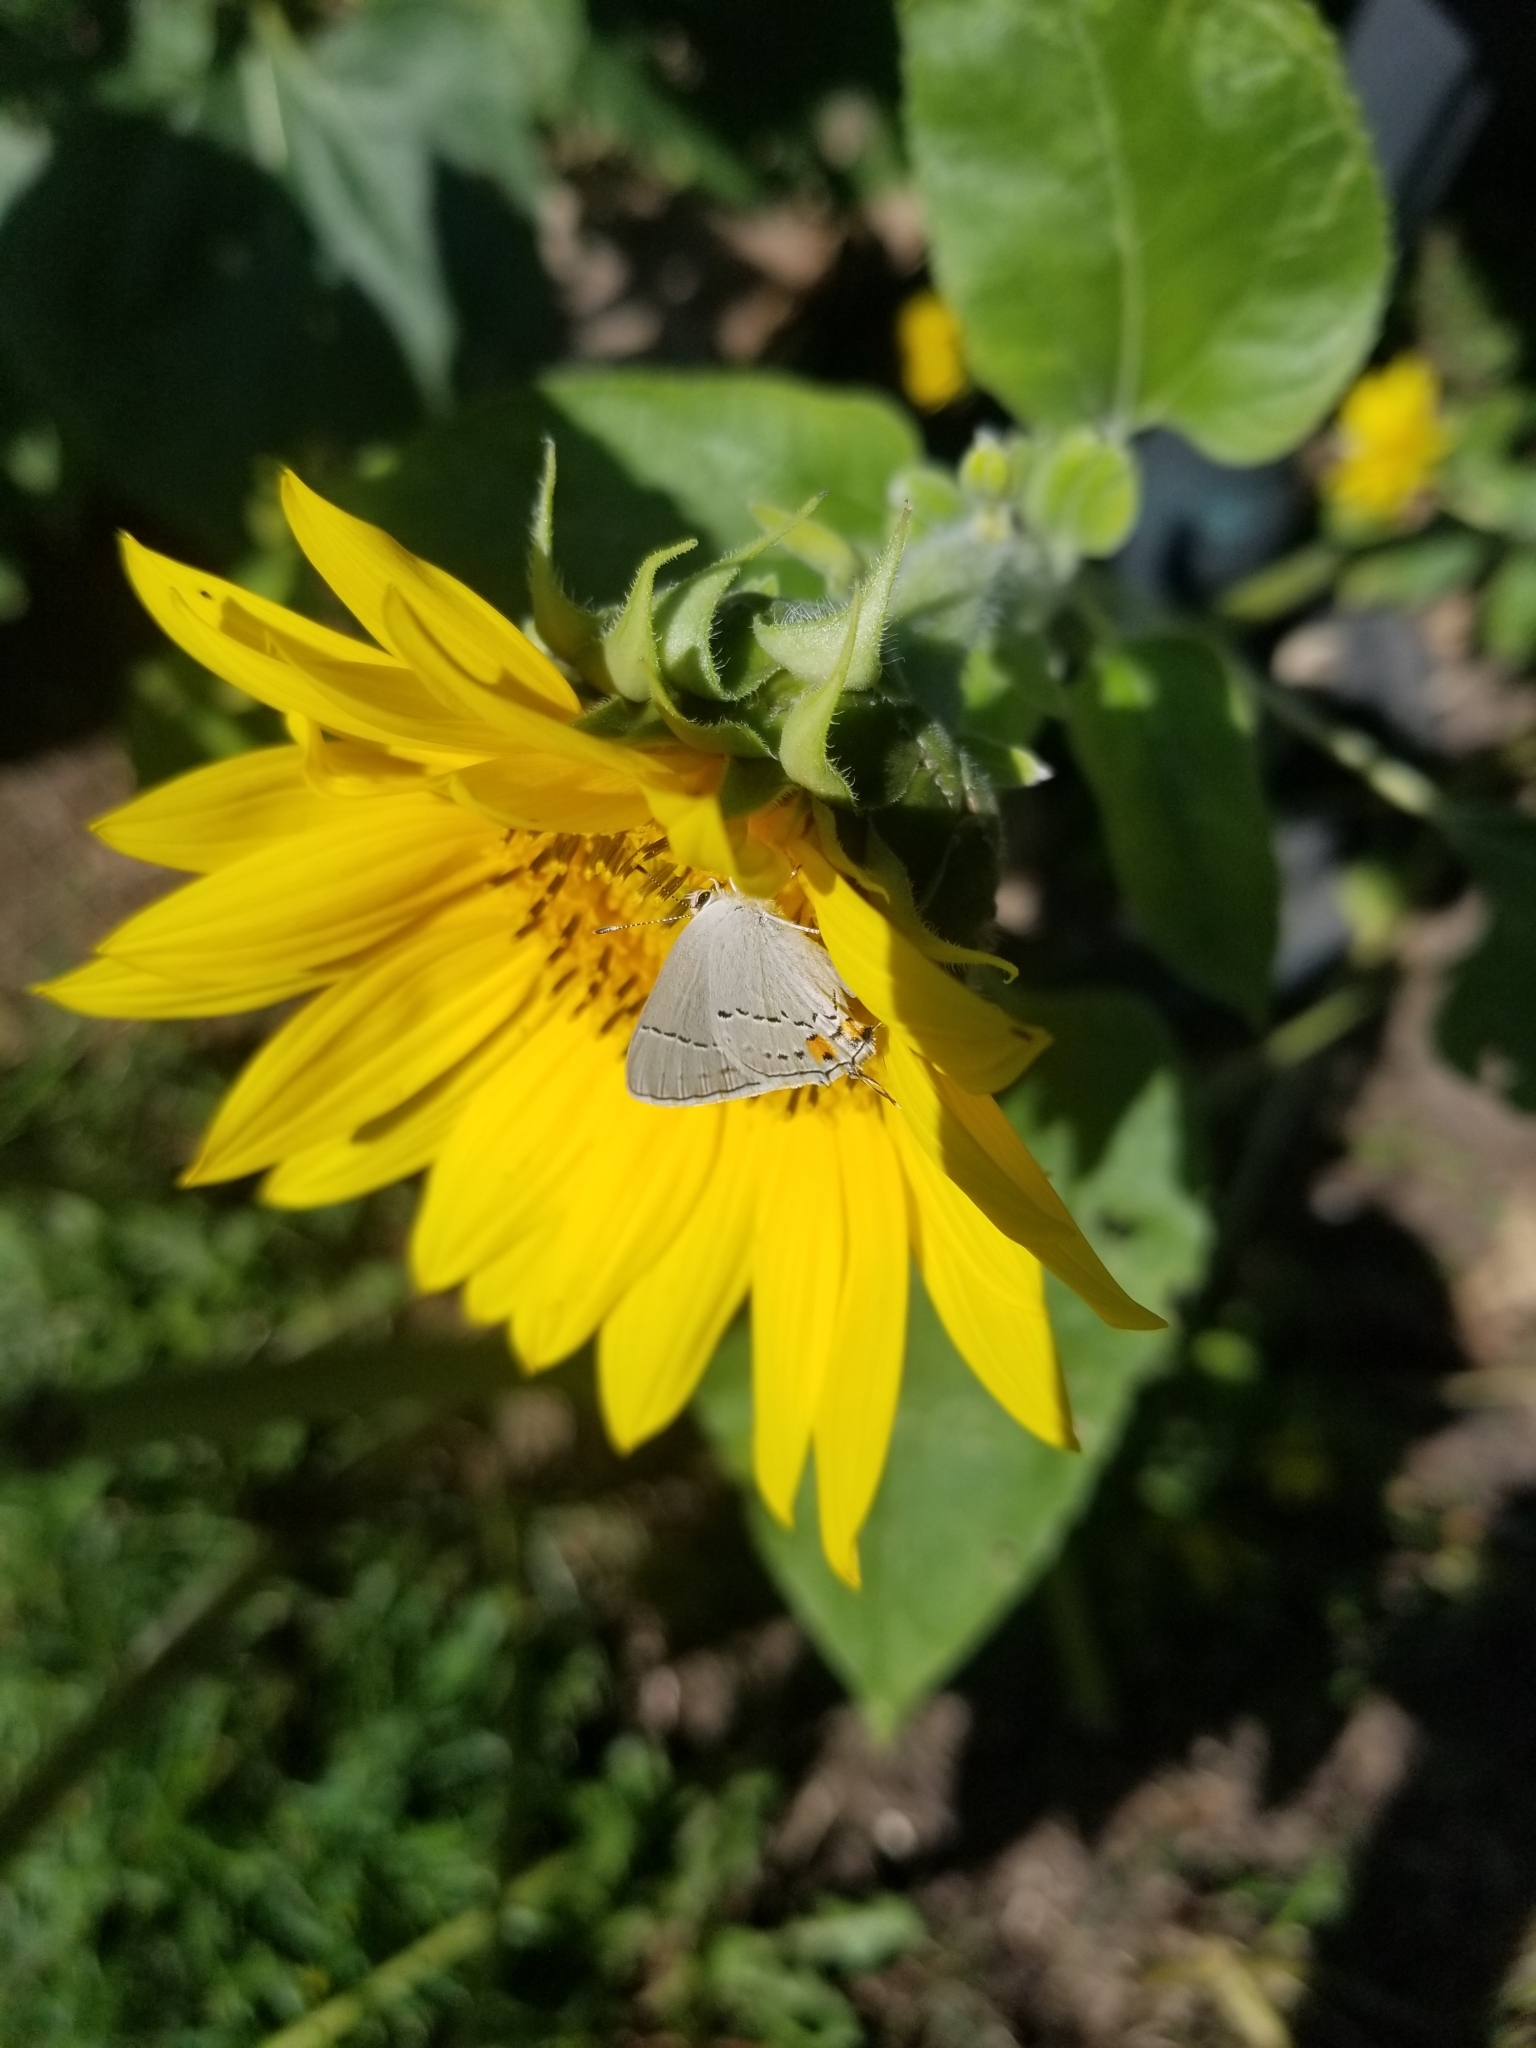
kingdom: Animalia
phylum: Arthropoda
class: Insecta
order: Lepidoptera
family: Lycaenidae
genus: Strymon
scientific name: Strymon melinus
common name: Gray hairstreak
